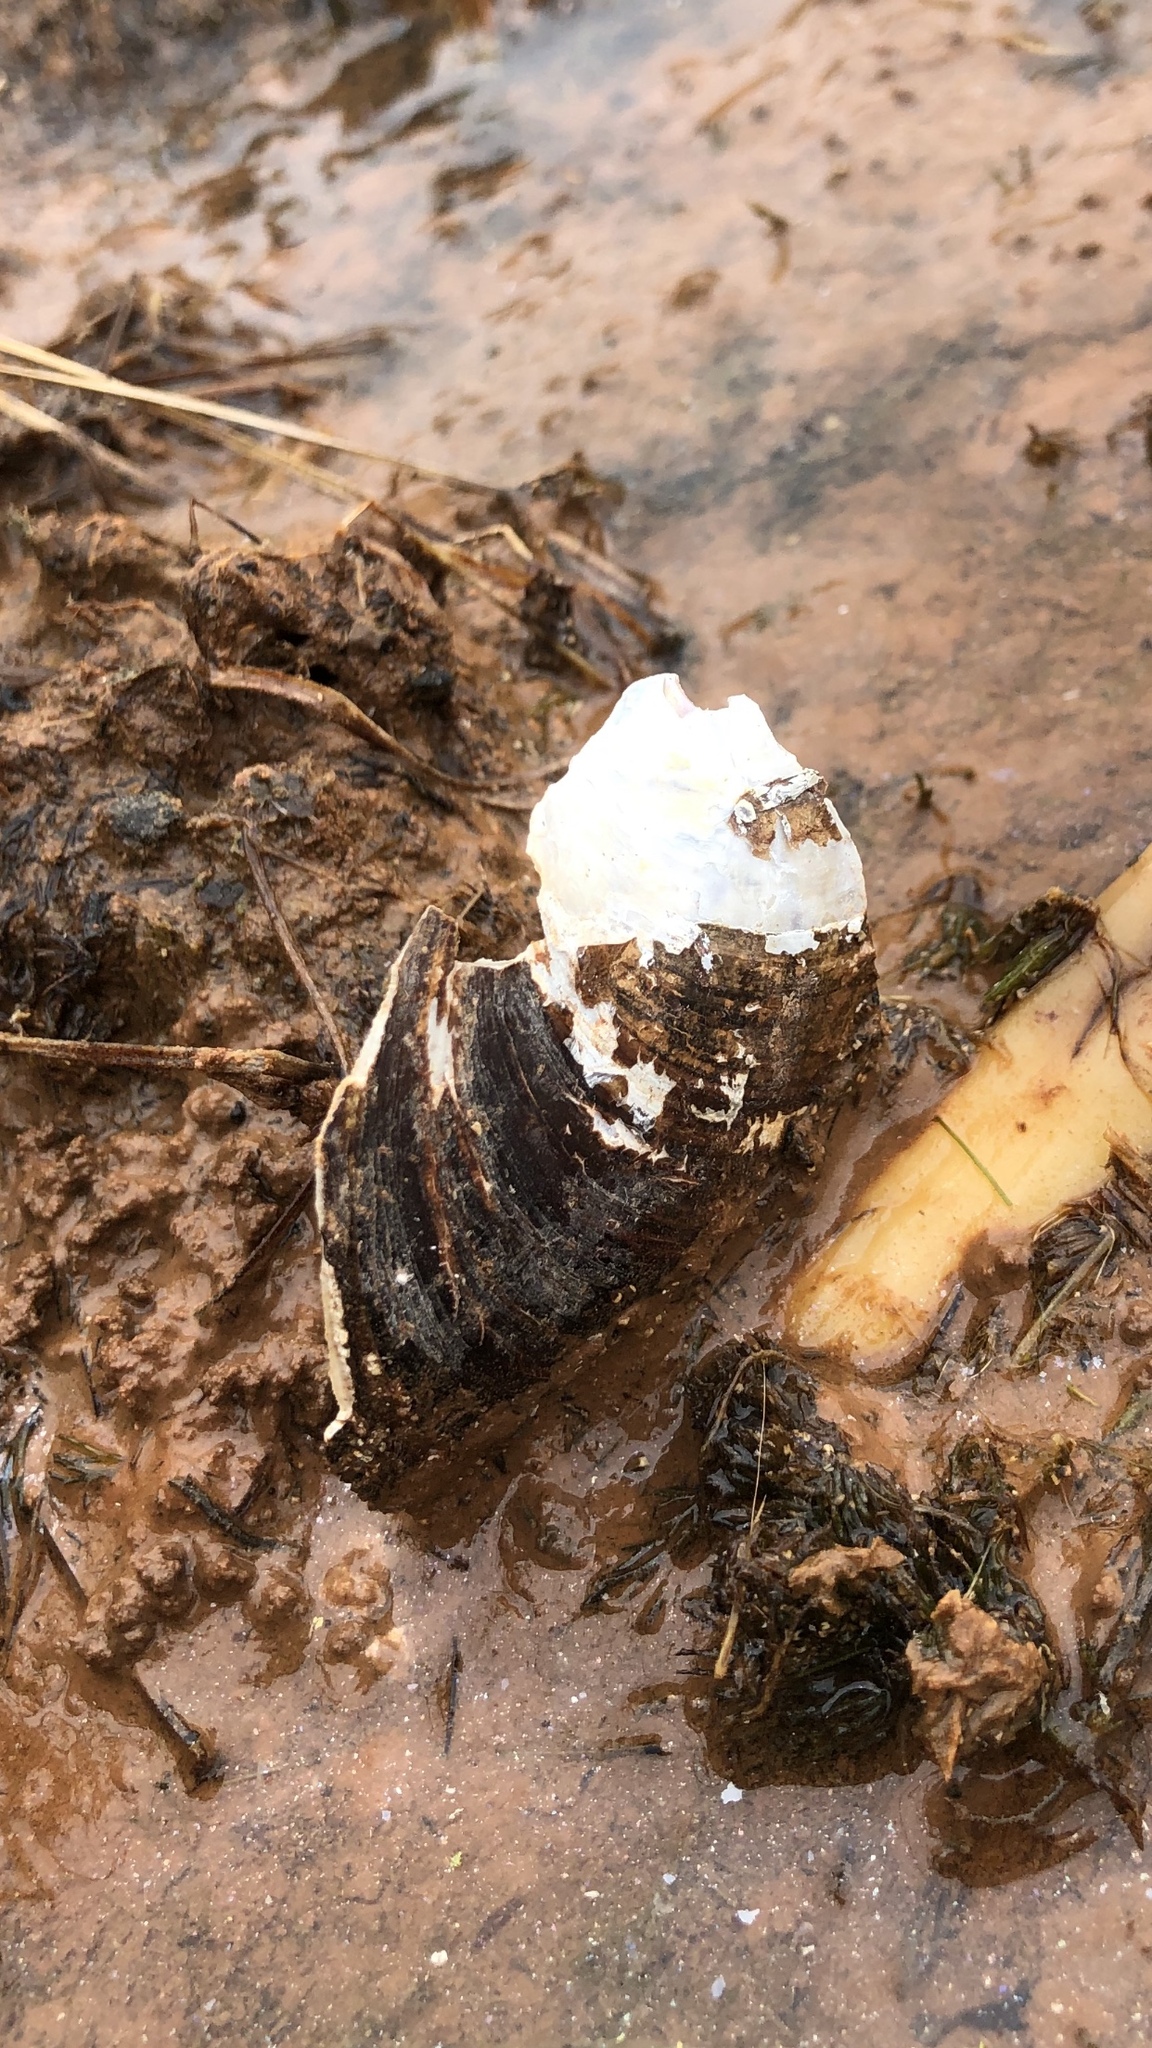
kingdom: Animalia
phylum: Mollusca
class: Bivalvia
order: Unionida
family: Unionidae
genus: Pyganodon
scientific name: Pyganodon grandis
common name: Giant floater
